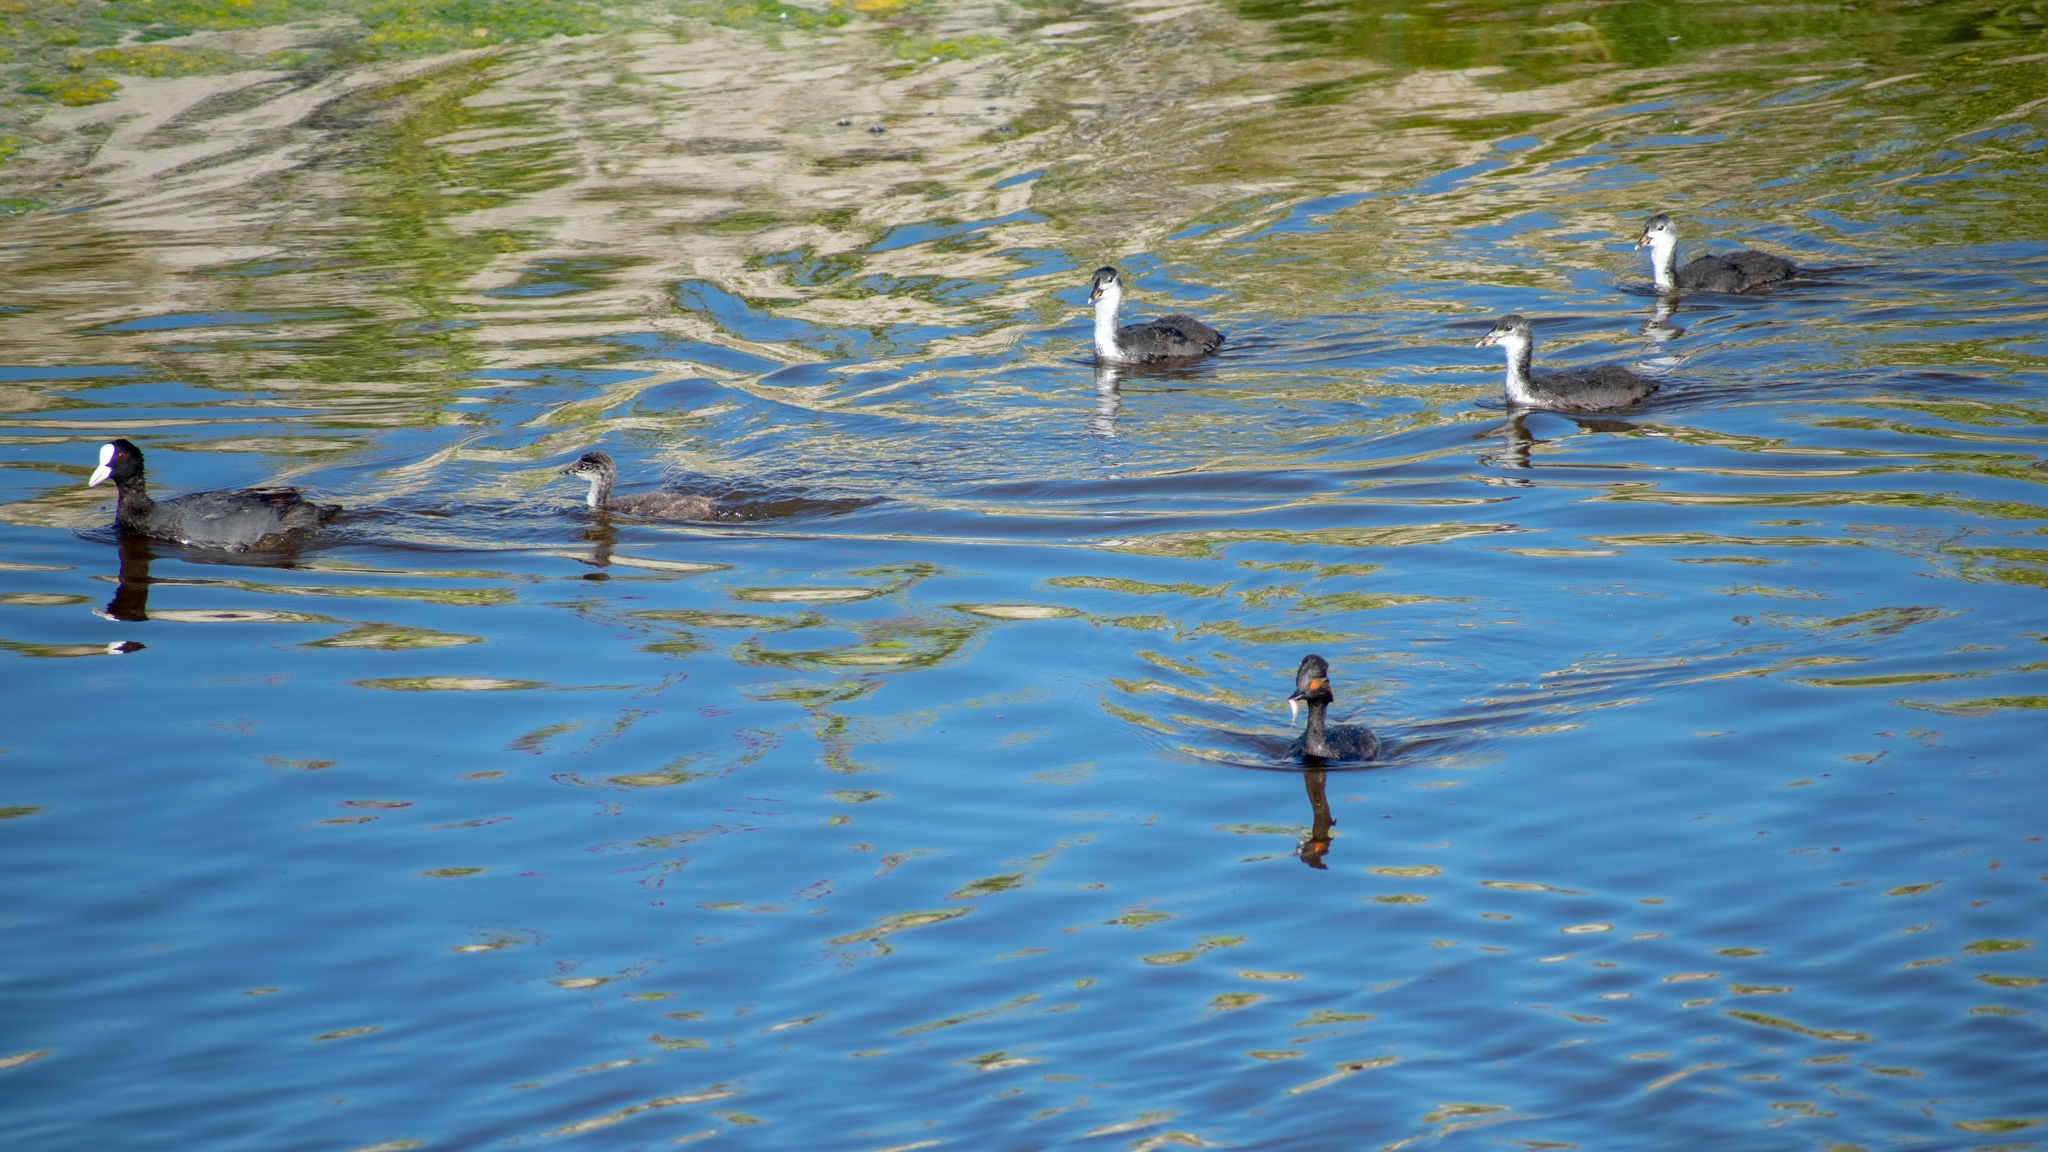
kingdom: Animalia
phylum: Chordata
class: Aves
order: Gruiformes
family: Rallidae
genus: Fulica
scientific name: Fulica atra
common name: Eurasian coot
